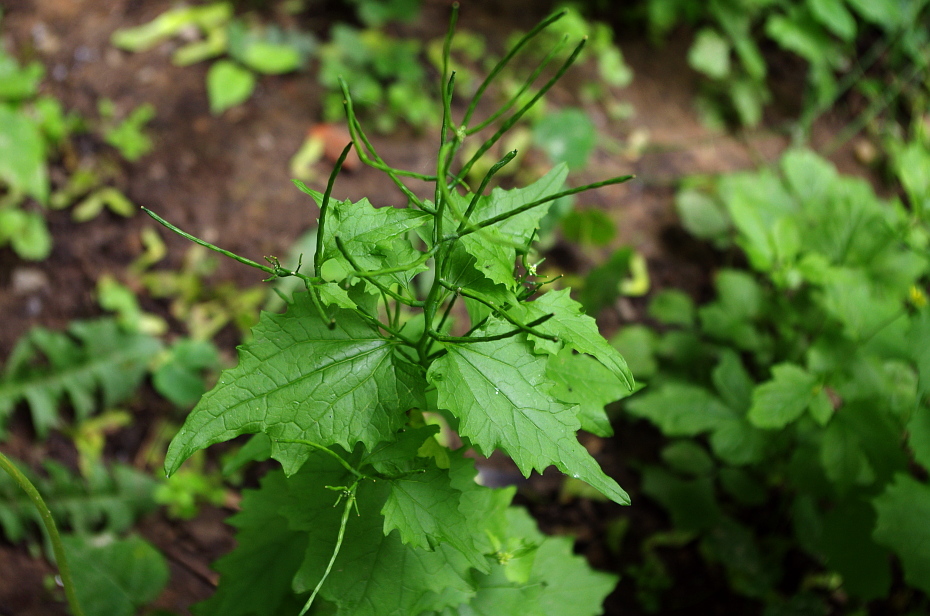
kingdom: Plantae
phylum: Tracheophyta
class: Magnoliopsida
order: Brassicales
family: Brassicaceae
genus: Alliaria
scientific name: Alliaria petiolata
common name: Garlic mustard
